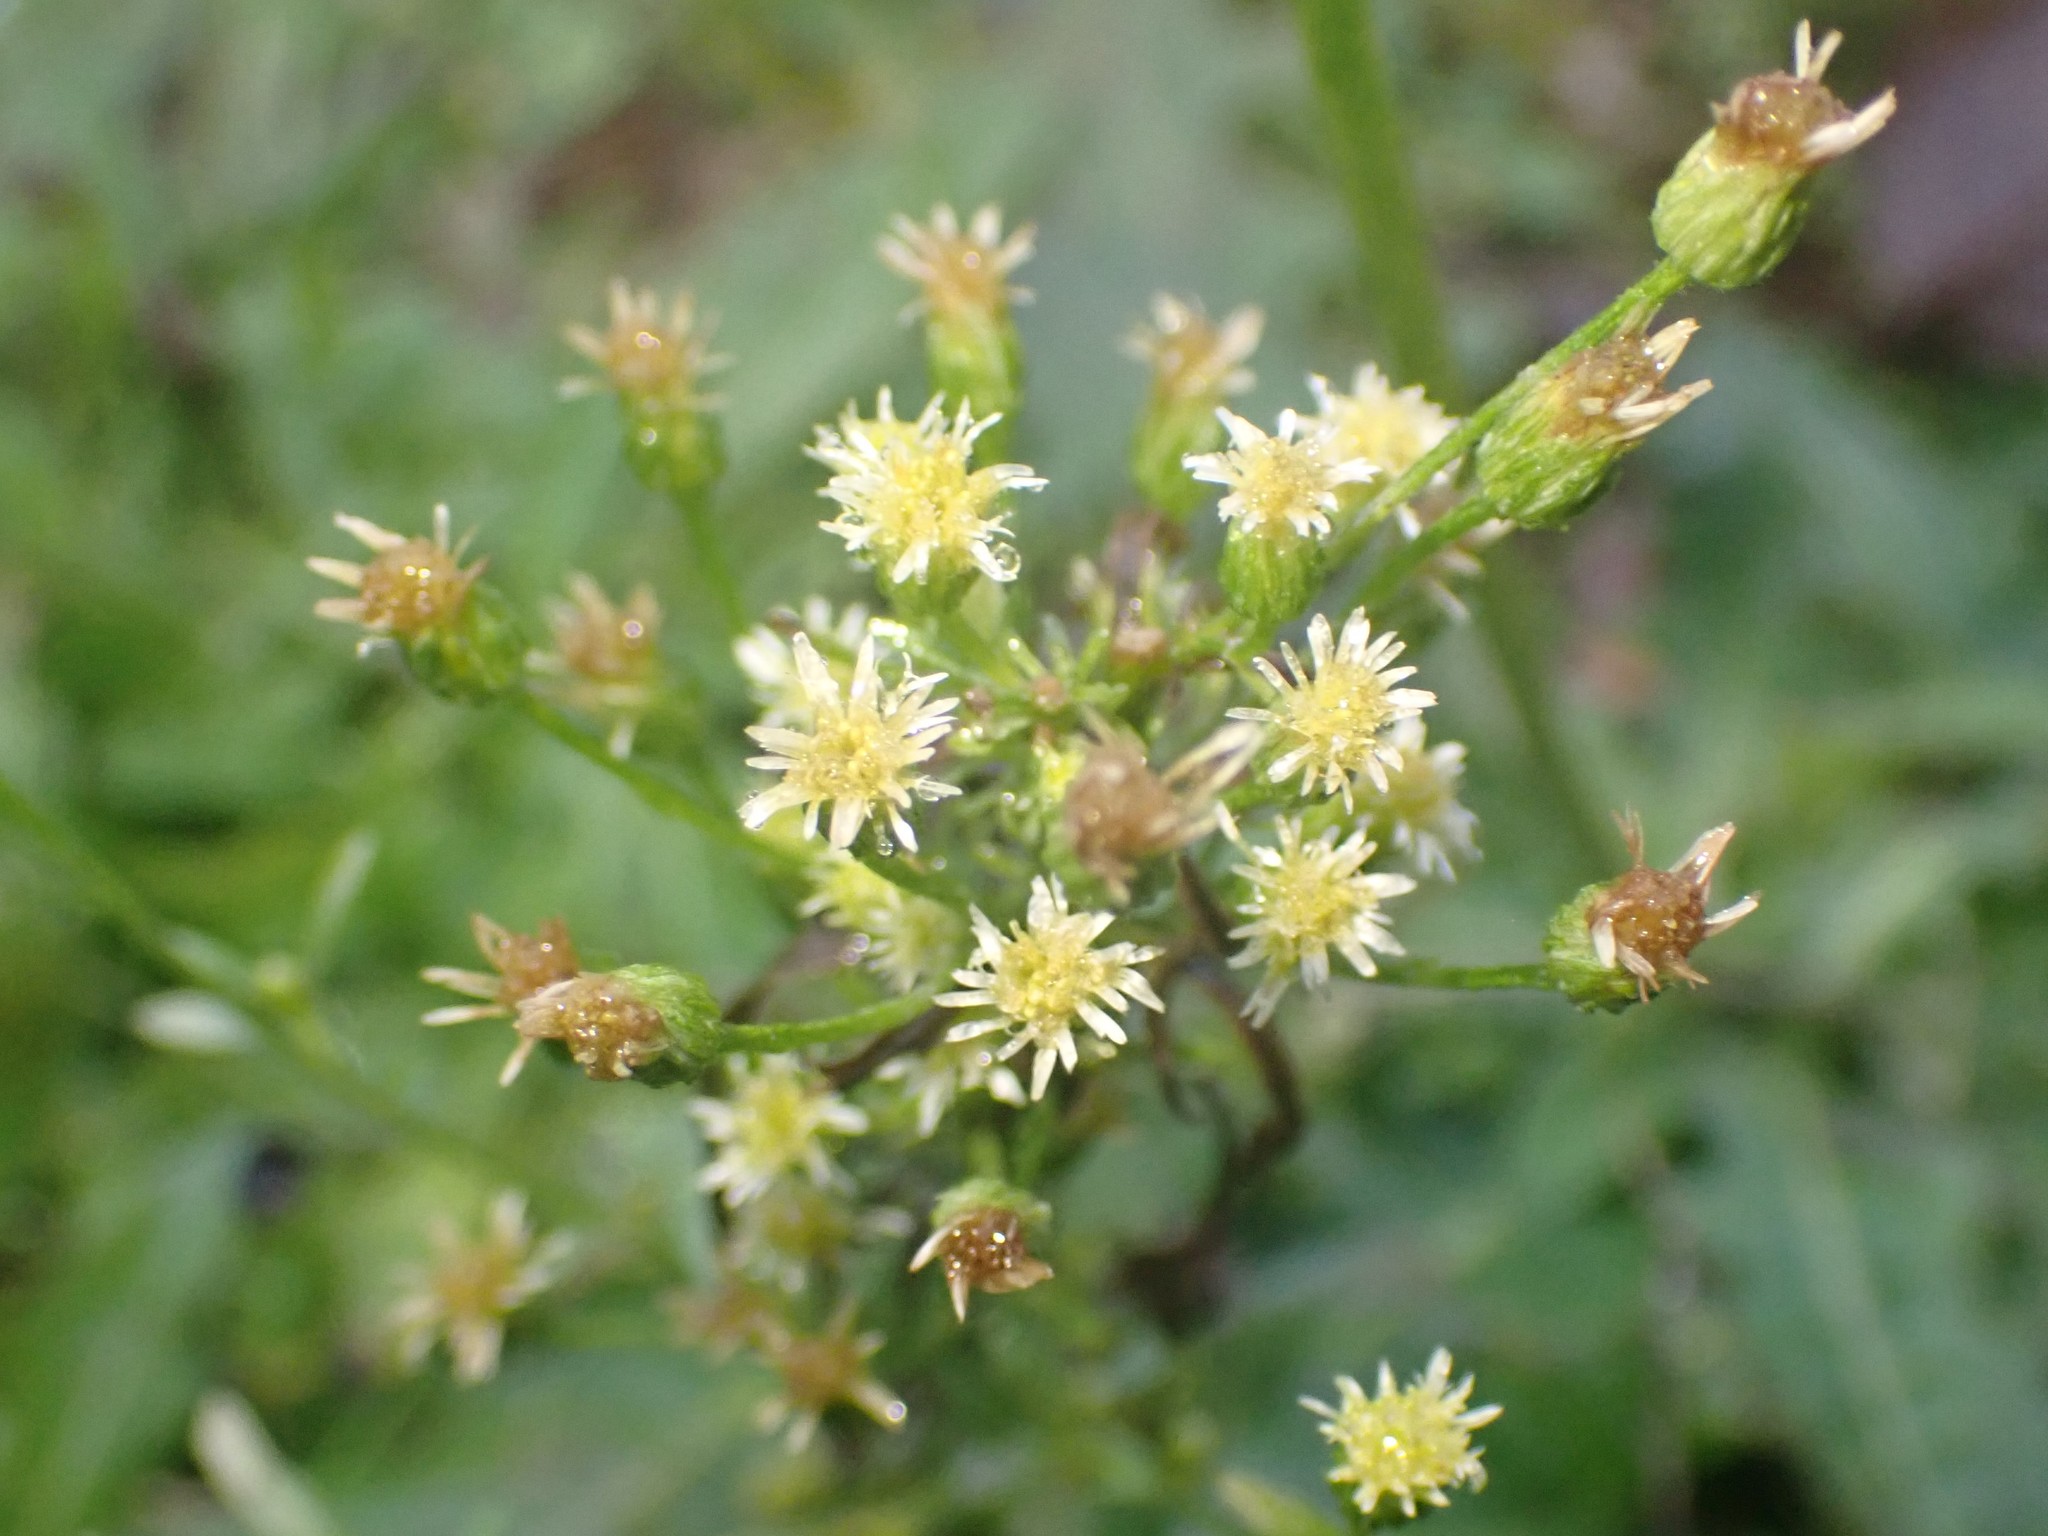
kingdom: Plantae
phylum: Tracheophyta
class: Magnoliopsida
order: Asterales
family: Asteraceae
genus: Erigeron
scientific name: Erigeron canadensis
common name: Canadian fleabane
